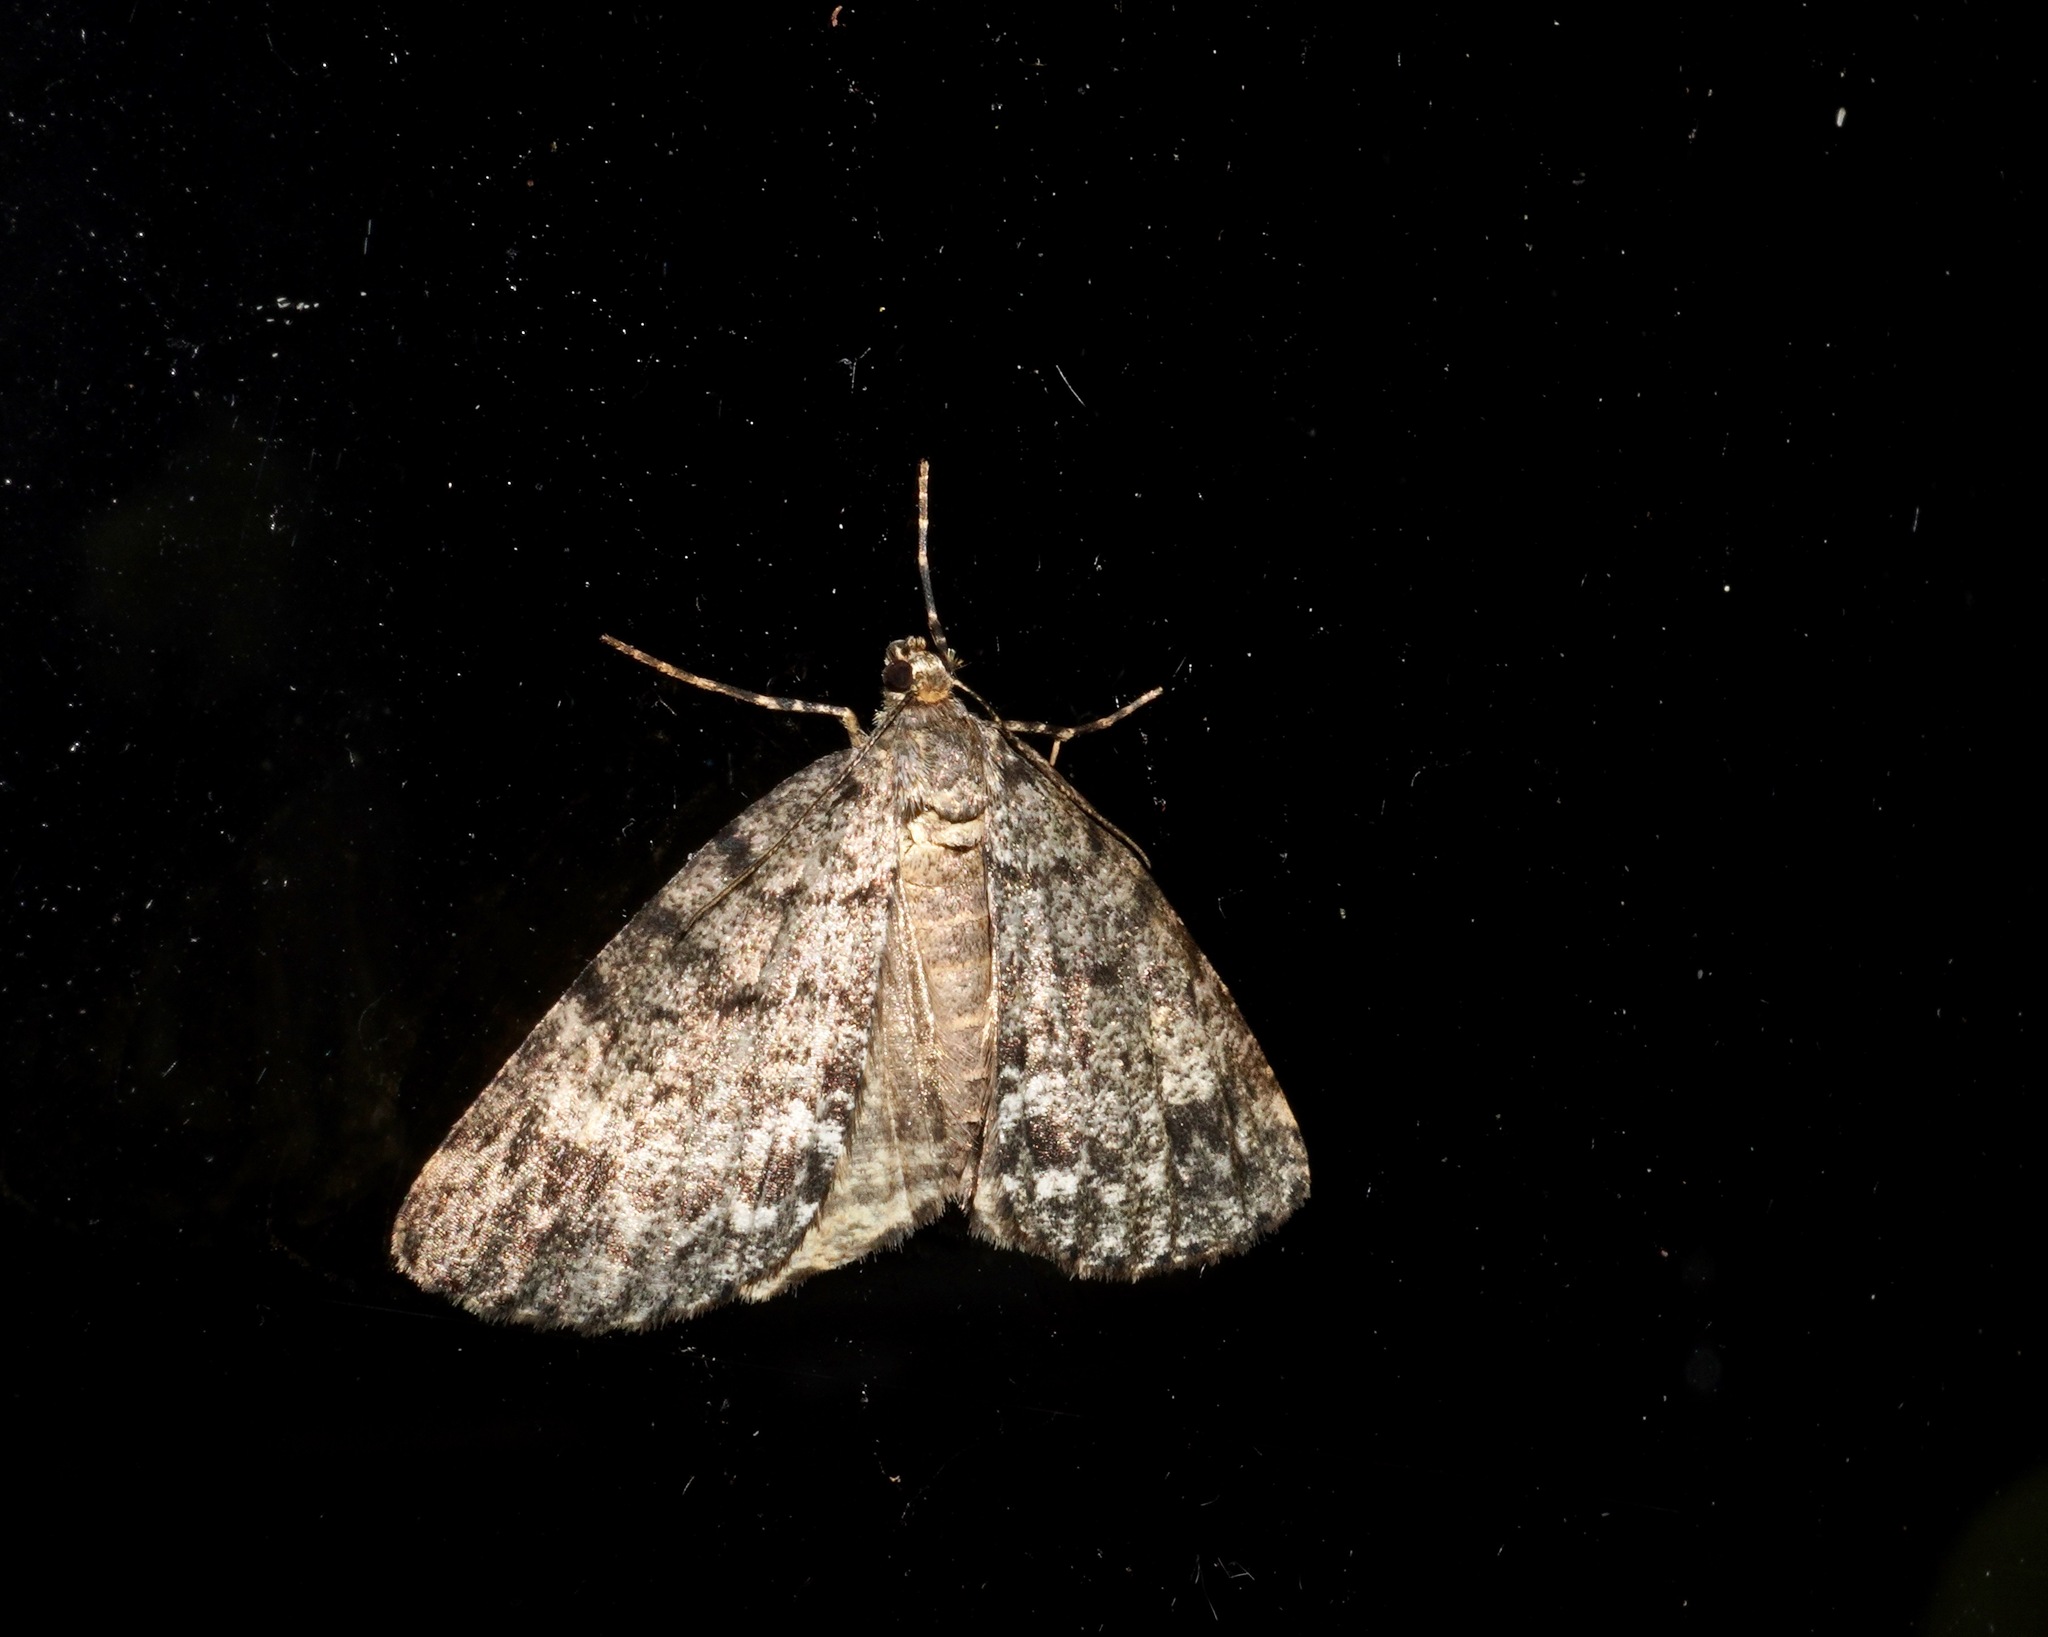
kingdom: Animalia
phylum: Arthropoda
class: Insecta
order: Lepidoptera
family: Geometridae
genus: Pseudocoremia
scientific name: Pseudocoremia indistincta
